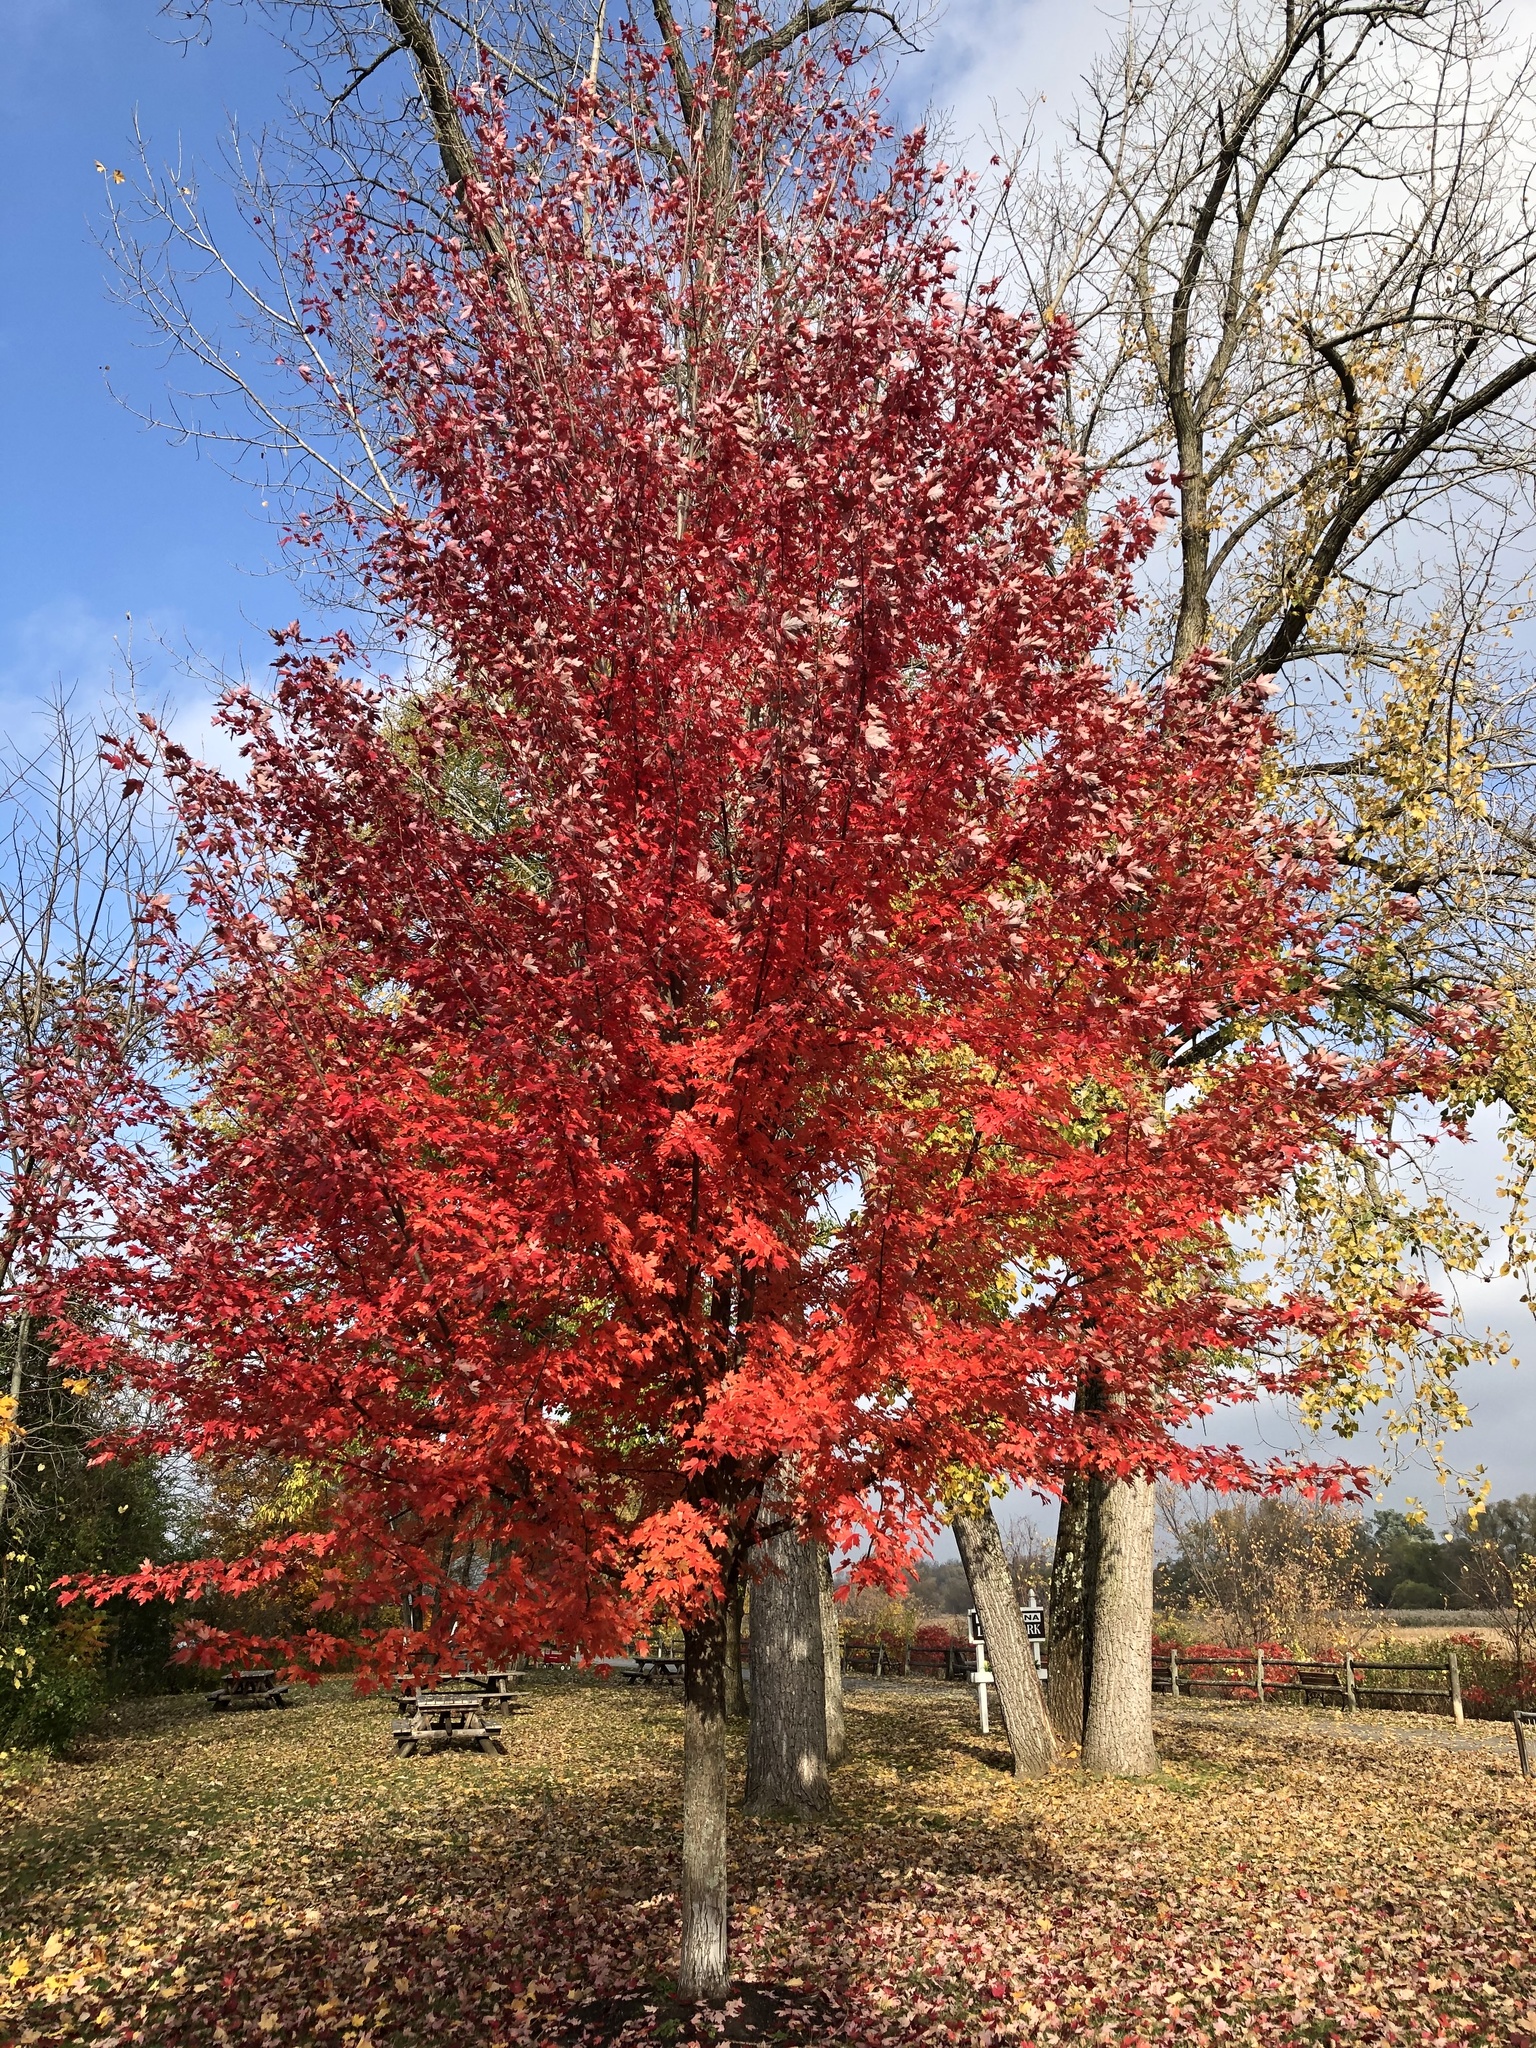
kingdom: Plantae
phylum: Tracheophyta
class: Magnoliopsida
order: Sapindales
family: Sapindaceae
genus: Acer
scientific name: Acer saccharum
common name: Sugar maple
